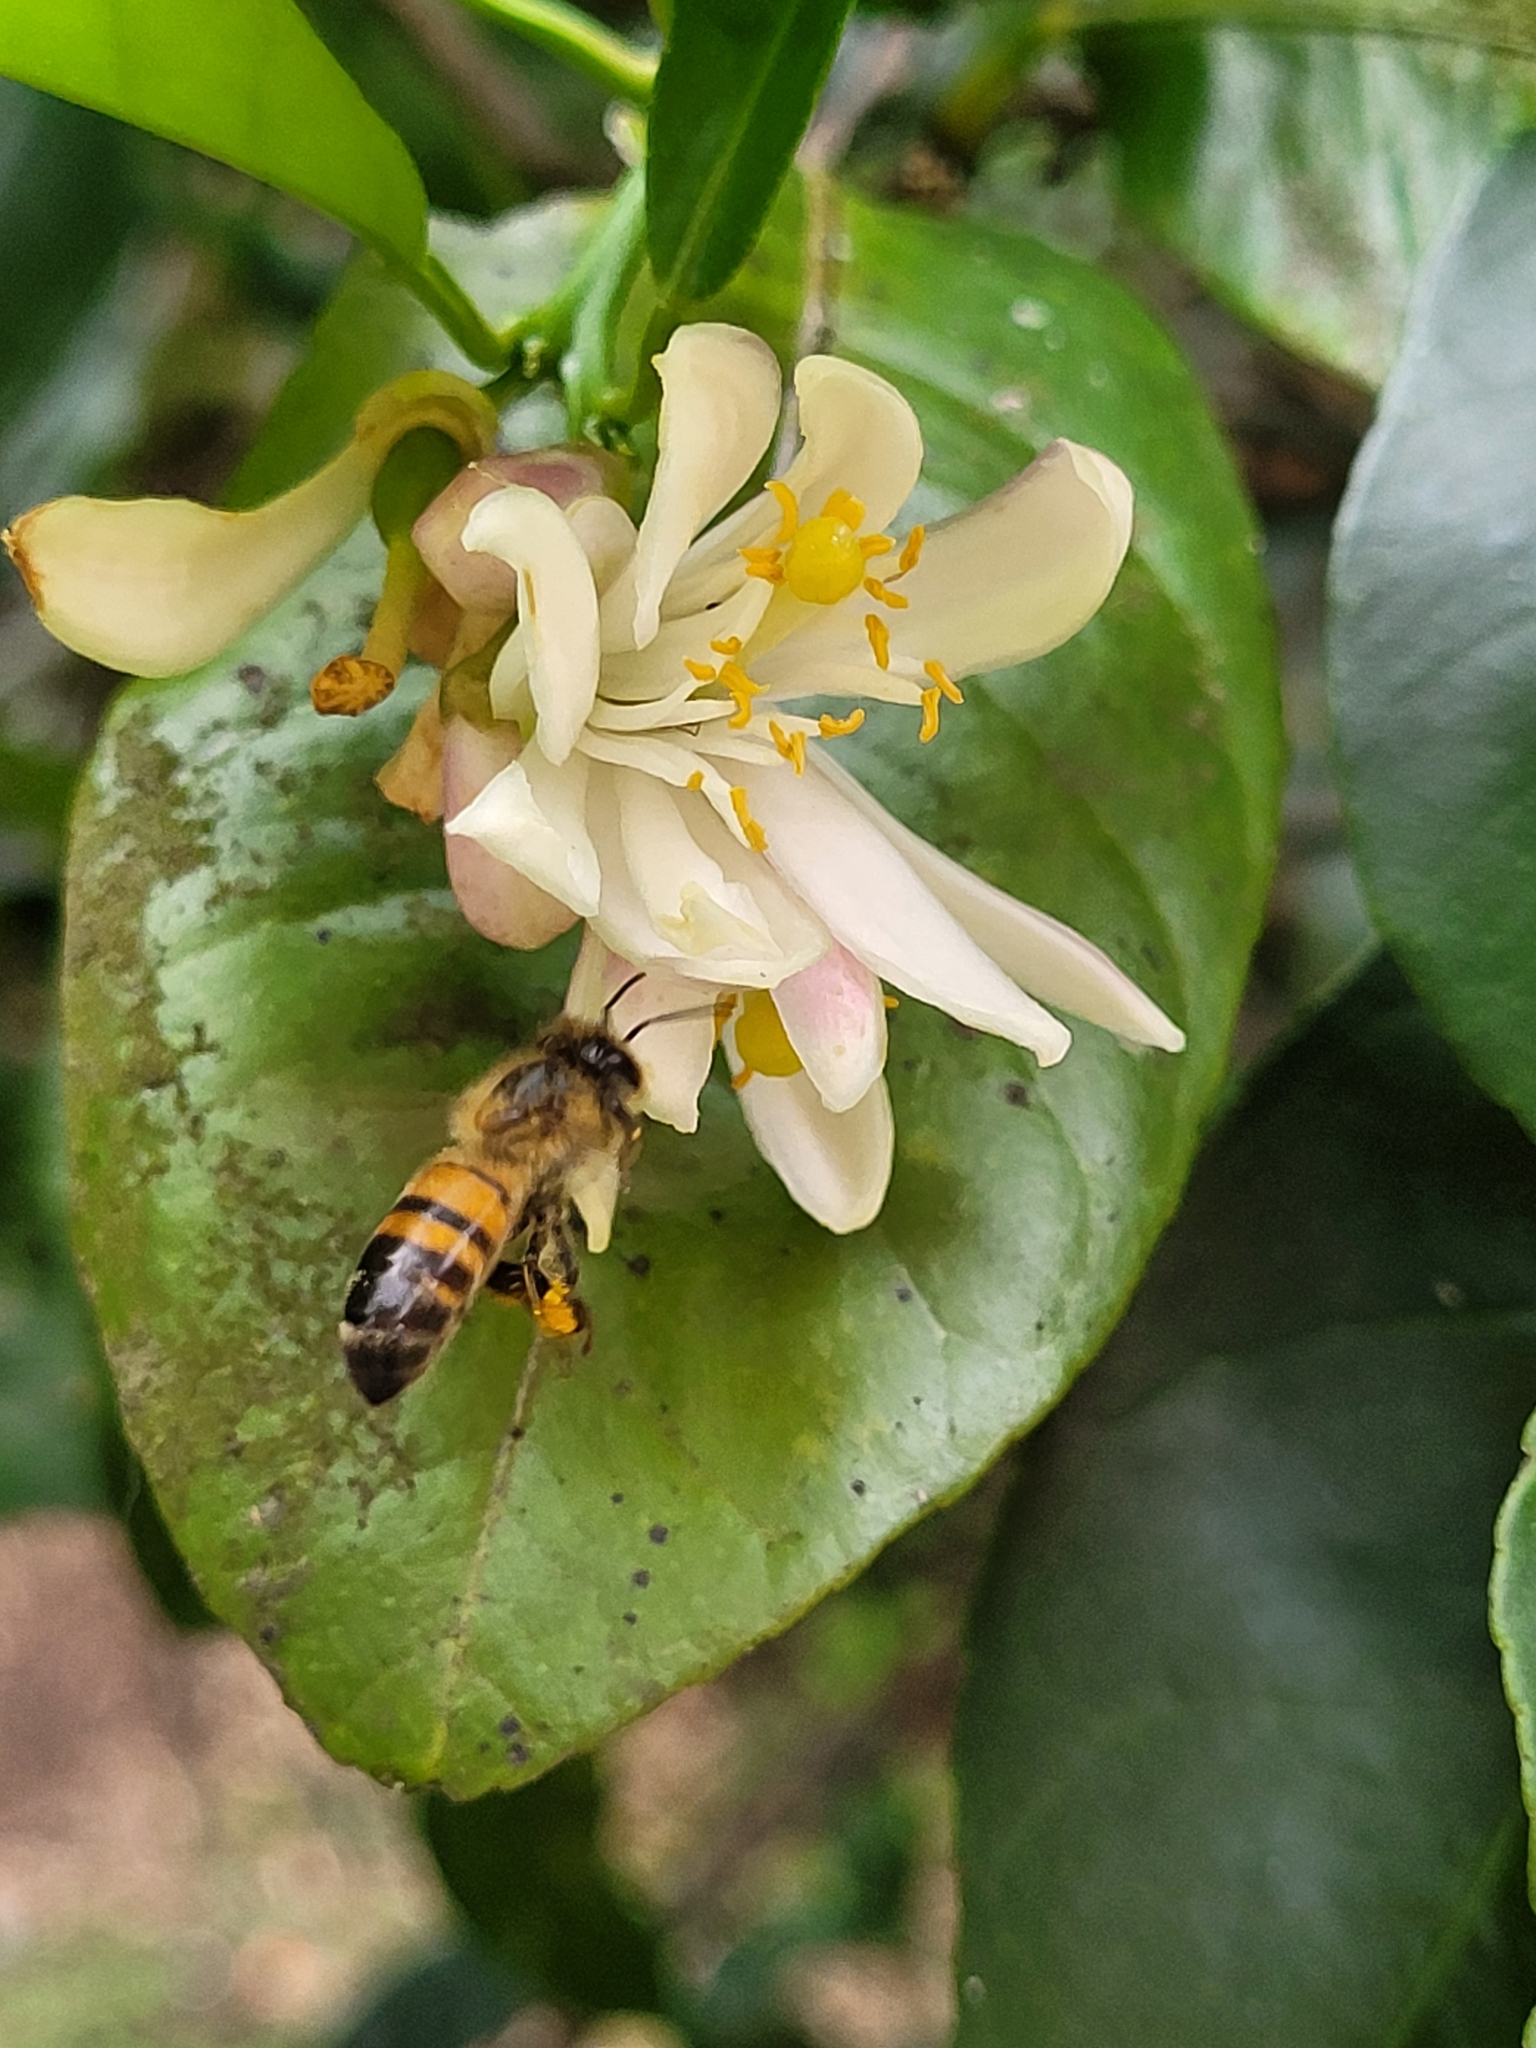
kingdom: Animalia
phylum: Arthropoda
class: Insecta
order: Hymenoptera
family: Apidae
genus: Apis
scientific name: Apis mellifera
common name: Honey bee
